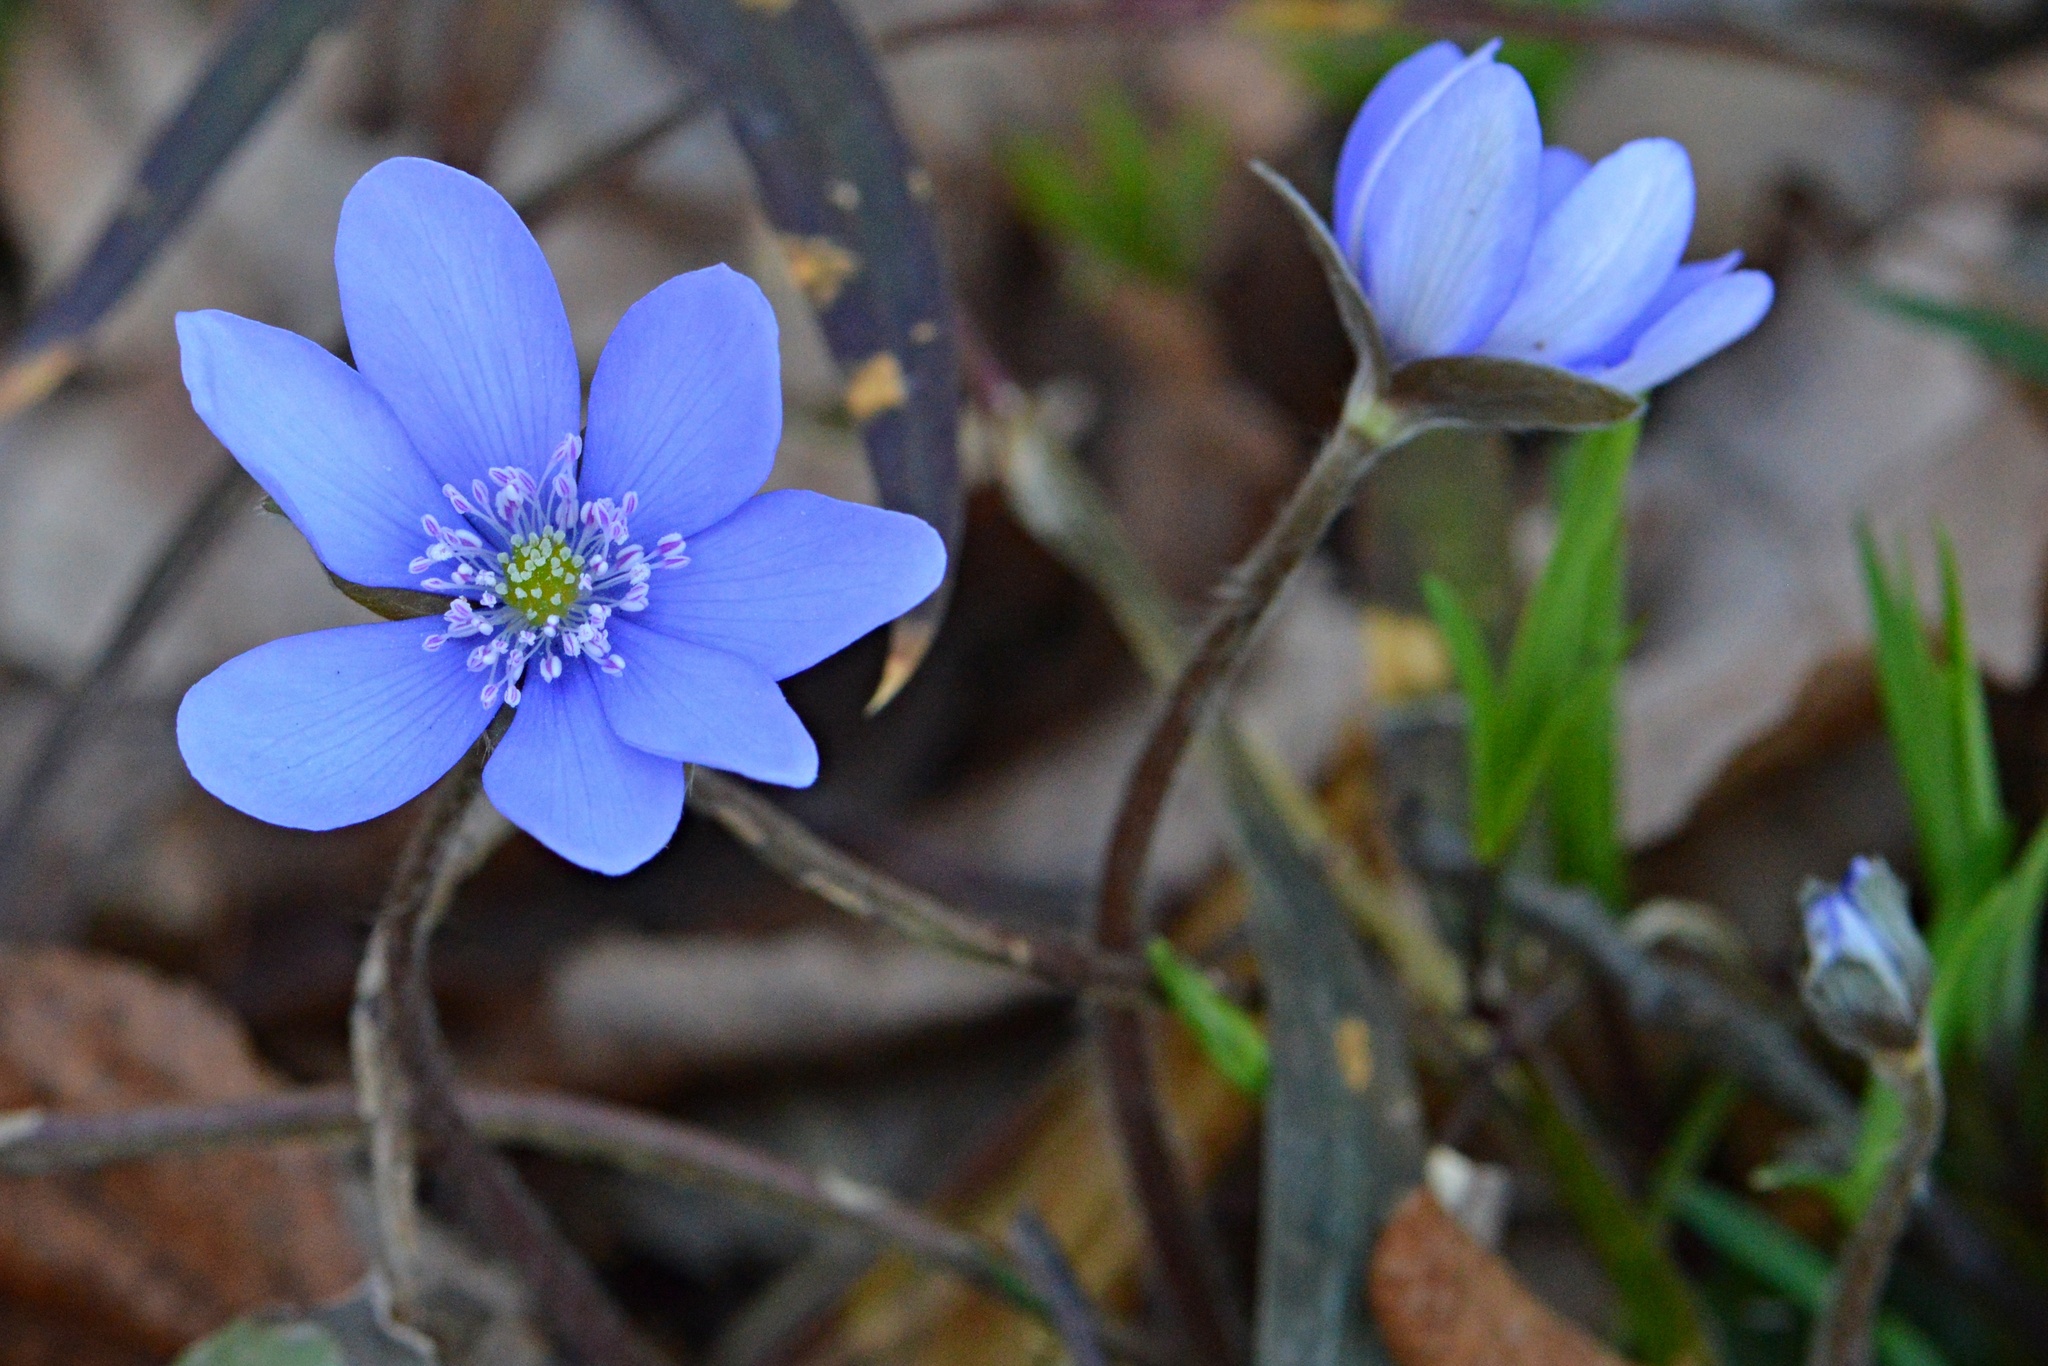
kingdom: Plantae
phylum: Tracheophyta
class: Magnoliopsida
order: Ranunculales
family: Ranunculaceae
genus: Hepatica
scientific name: Hepatica nobilis
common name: Liverleaf
